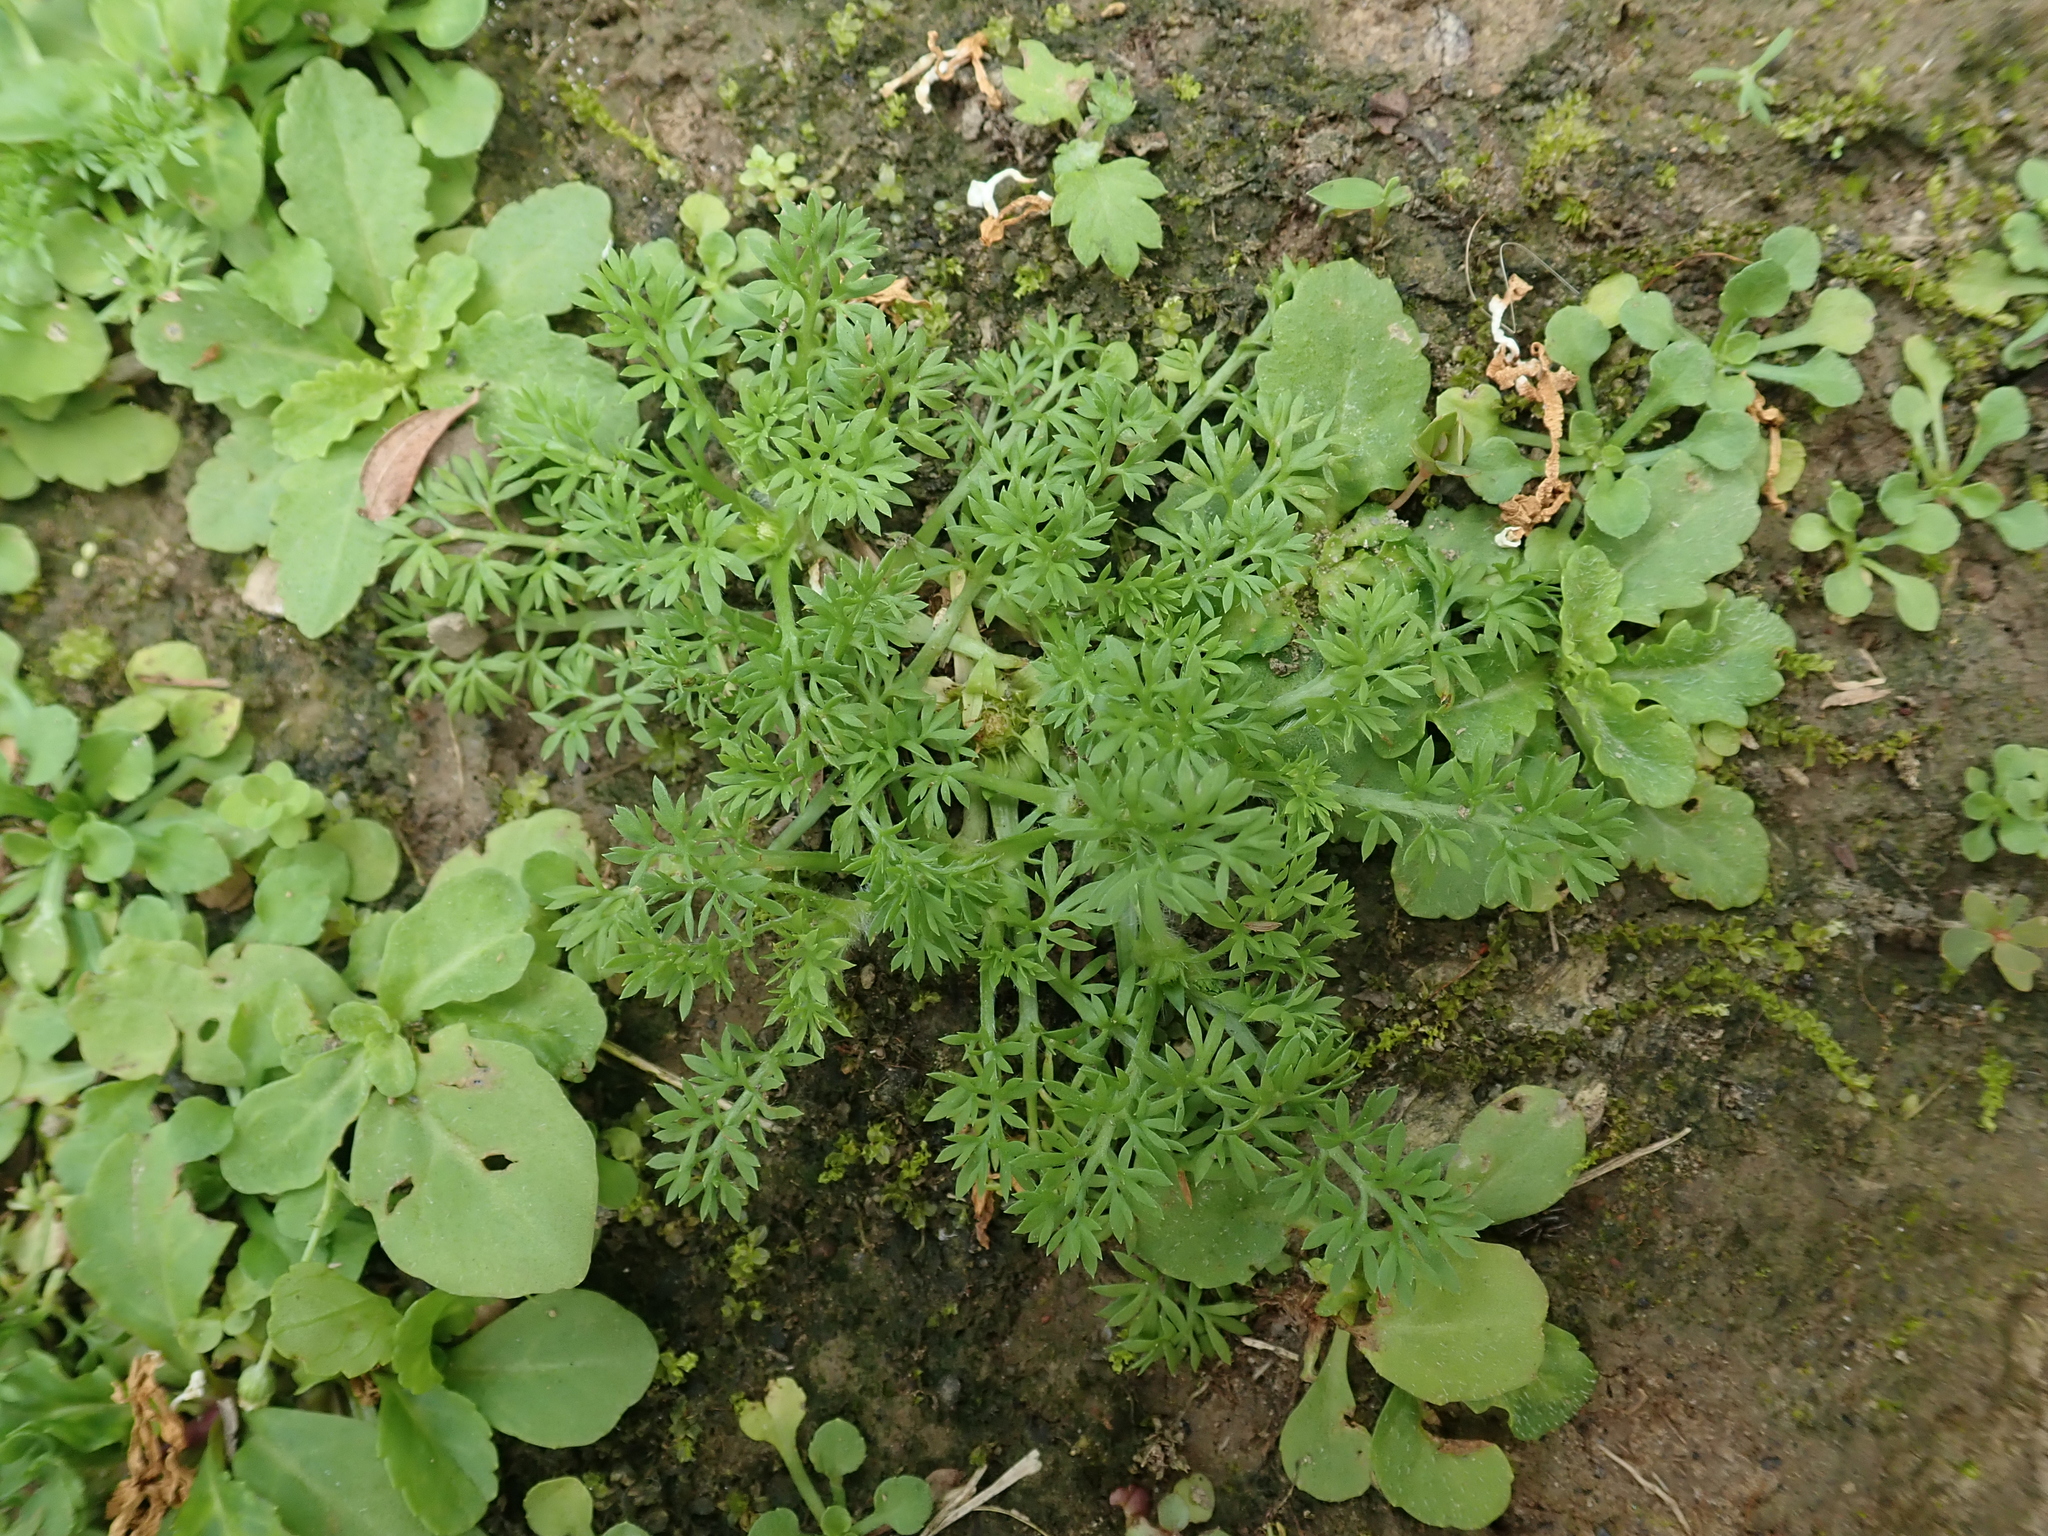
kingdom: Plantae
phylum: Tracheophyta
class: Magnoliopsida
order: Asterales
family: Asteraceae
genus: Soliva
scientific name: Soliva sessilis
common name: Field burrweed
